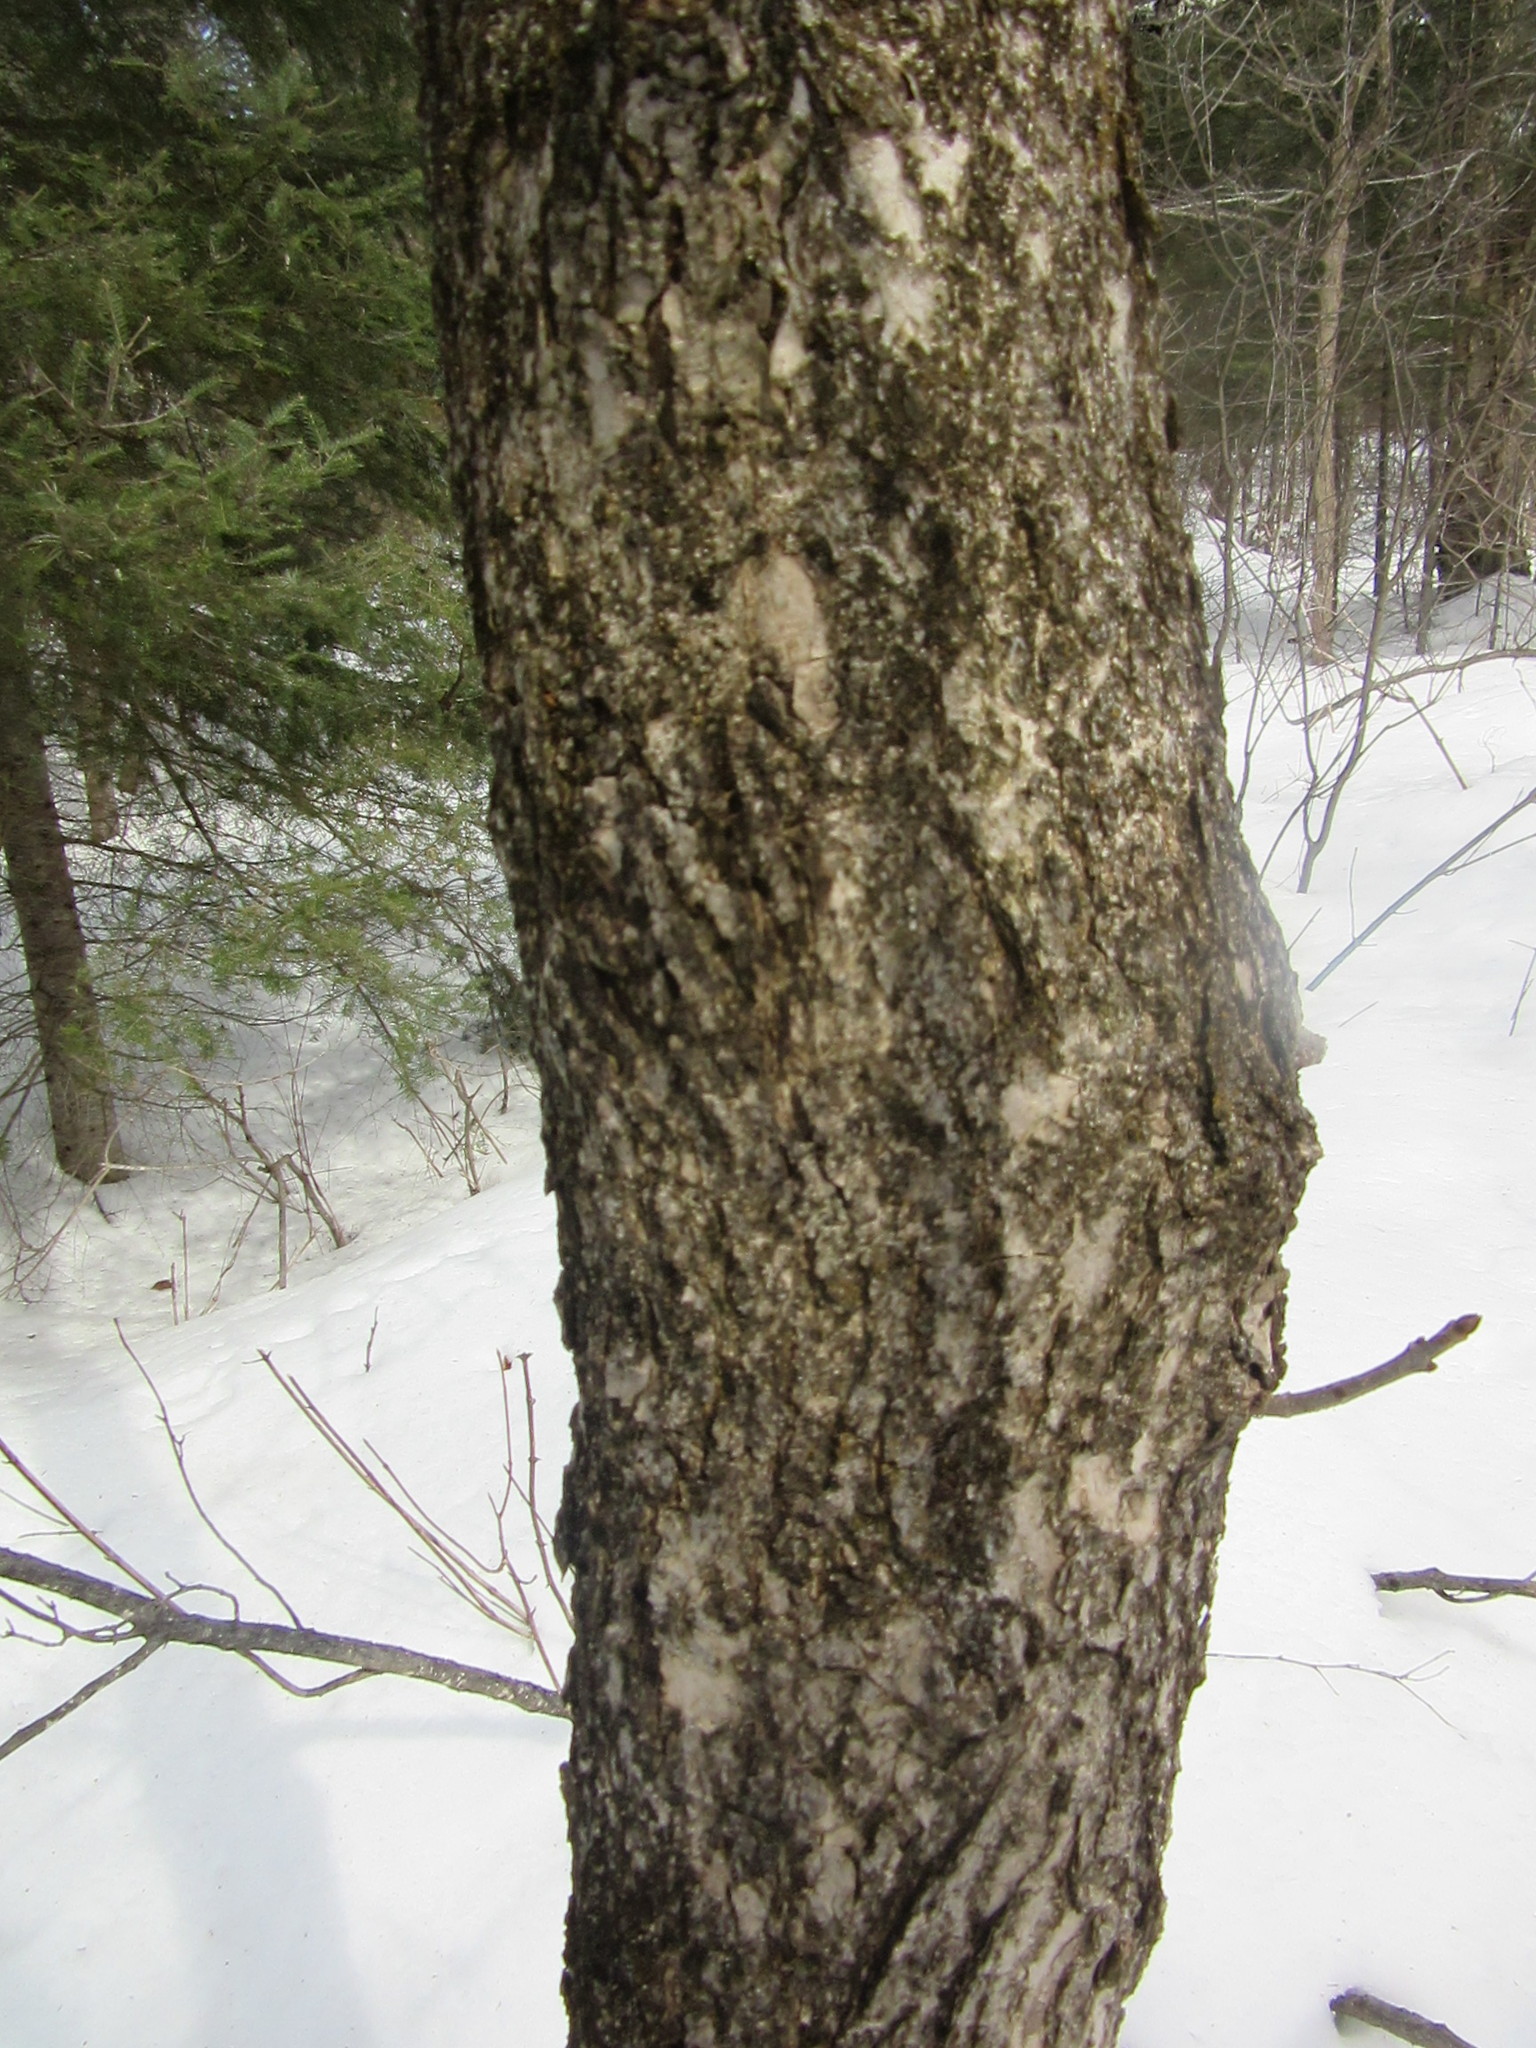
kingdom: Plantae
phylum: Tracheophyta
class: Magnoliopsida
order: Lamiales
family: Oleaceae
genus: Fraxinus
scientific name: Fraxinus nigra
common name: Black ash
